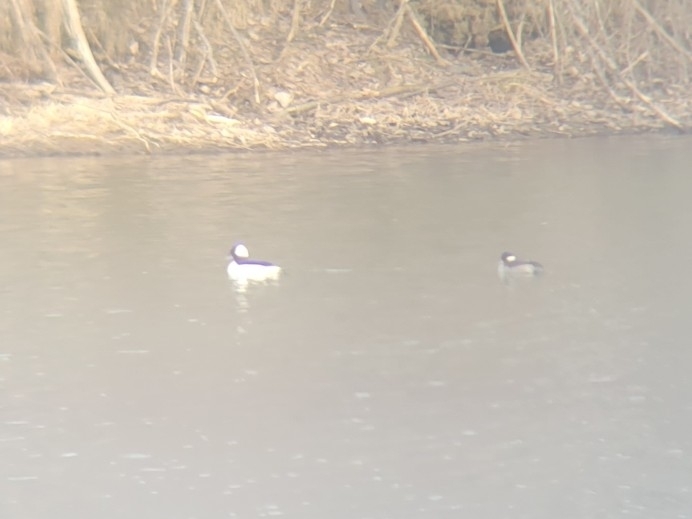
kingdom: Animalia
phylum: Chordata
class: Aves
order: Anseriformes
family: Anatidae
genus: Bucephala
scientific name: Bucephala albeola
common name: Bufflehead
